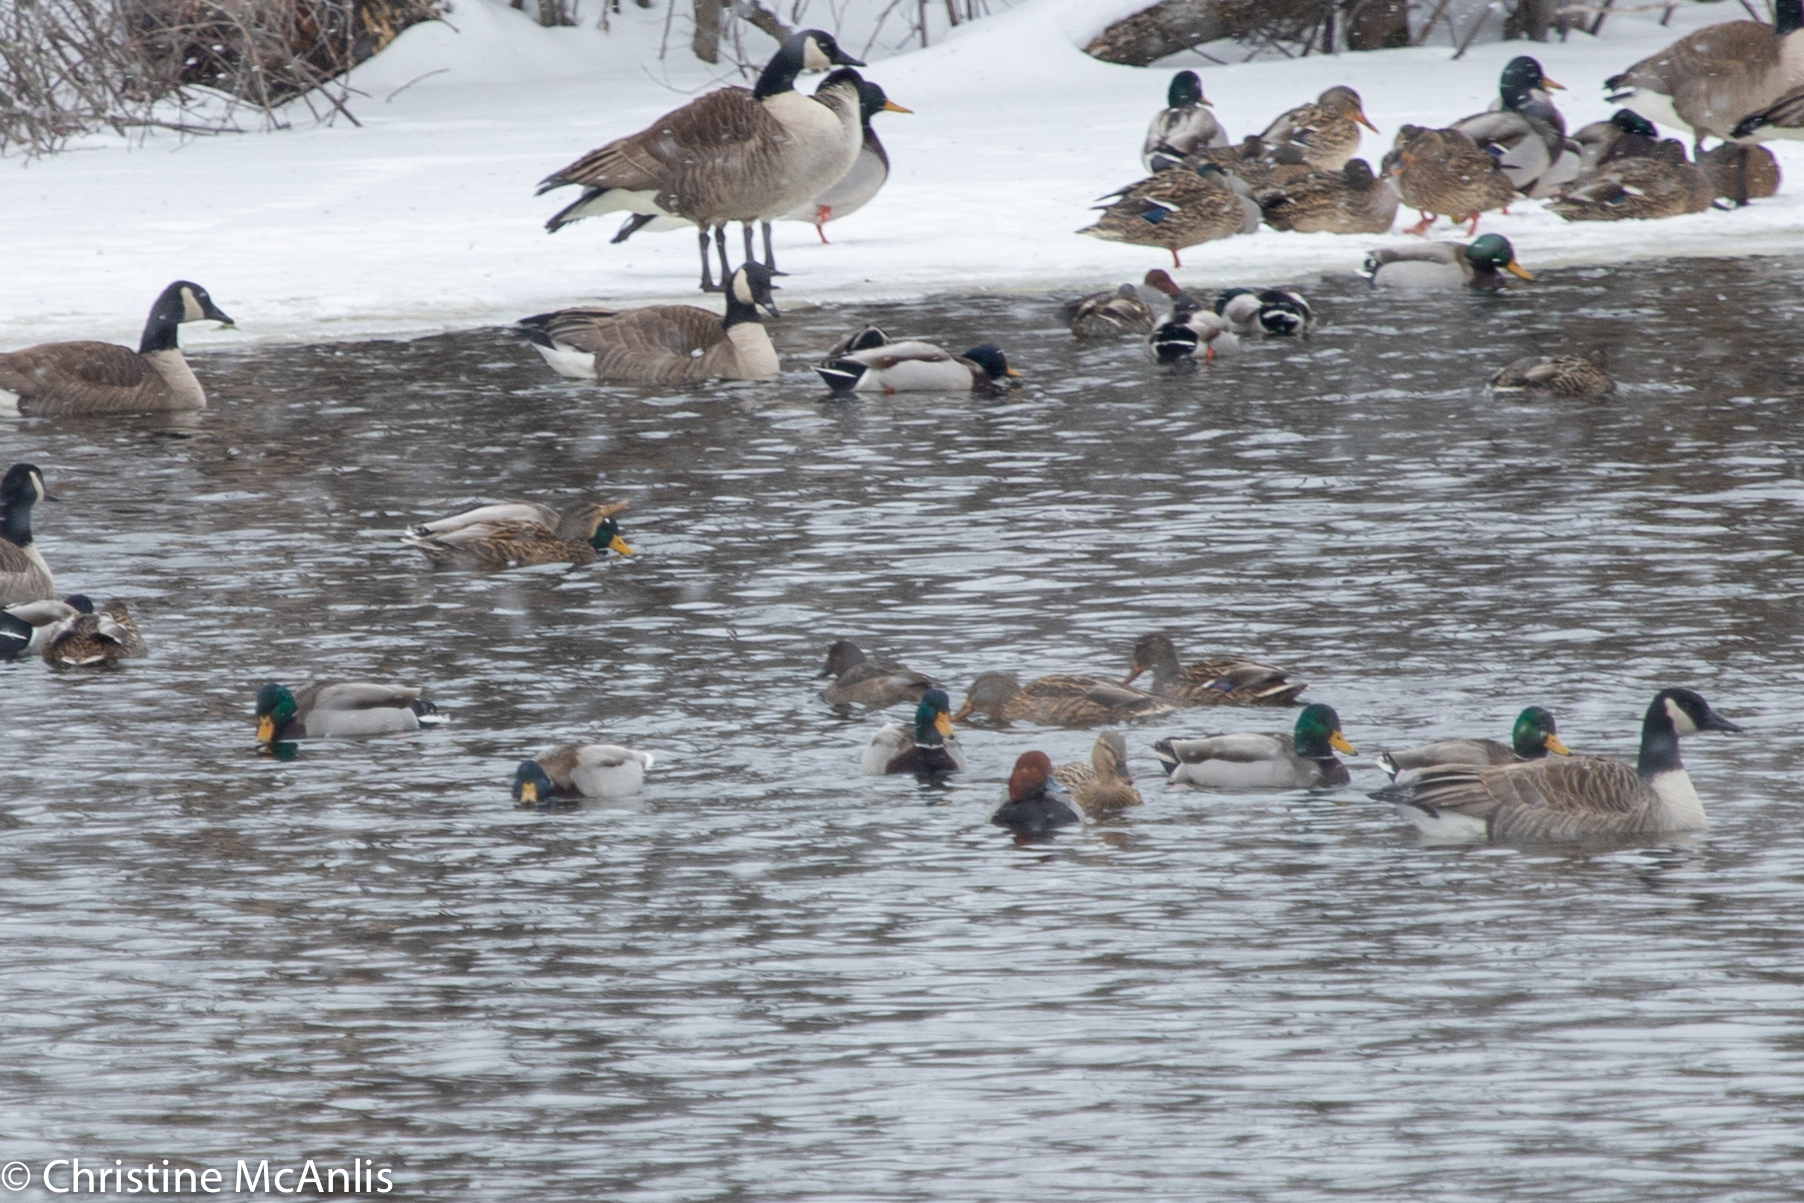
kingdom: Animalia
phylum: Chordata
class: Aves
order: Anseriformes
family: Anatidae
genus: Anas
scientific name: Anas platyrhynchos
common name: Mallard
